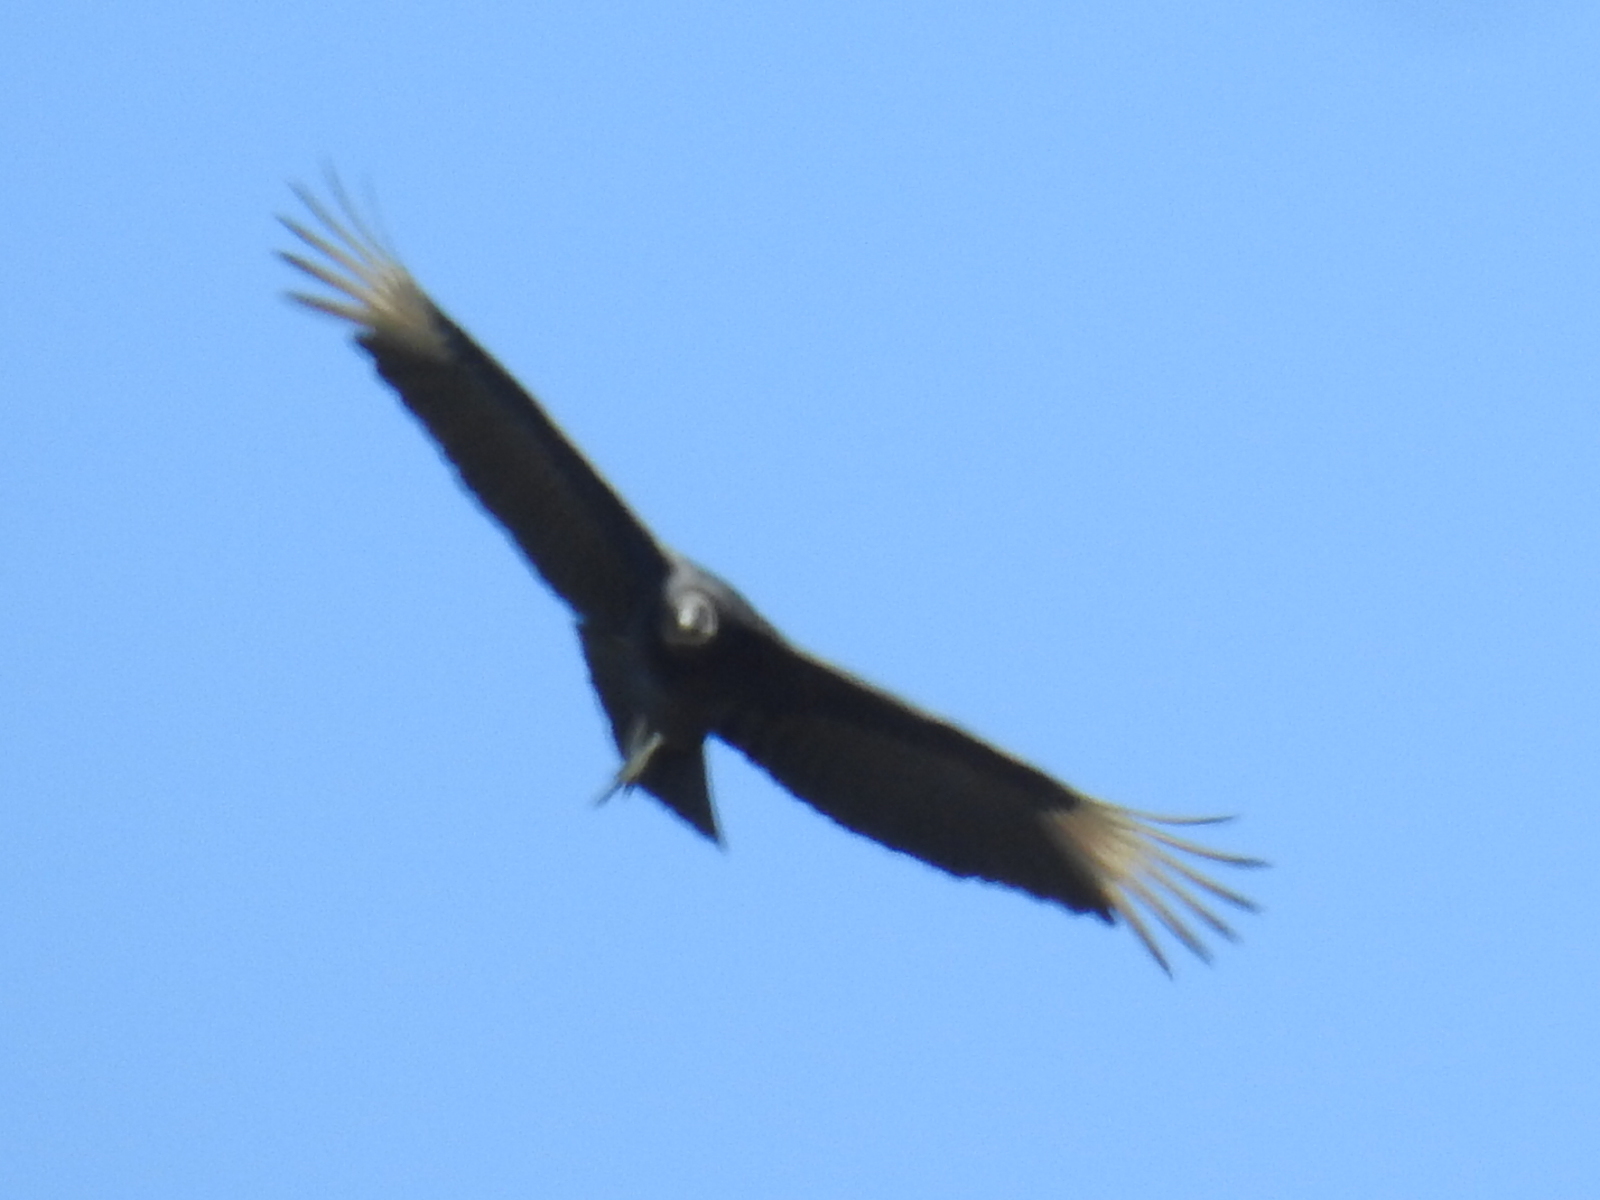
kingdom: Animalia
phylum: Chordata
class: Aves
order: Accipitriformes
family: Cathartidae
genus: Coragyps
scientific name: Coragyps atratus
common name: Black vulture
